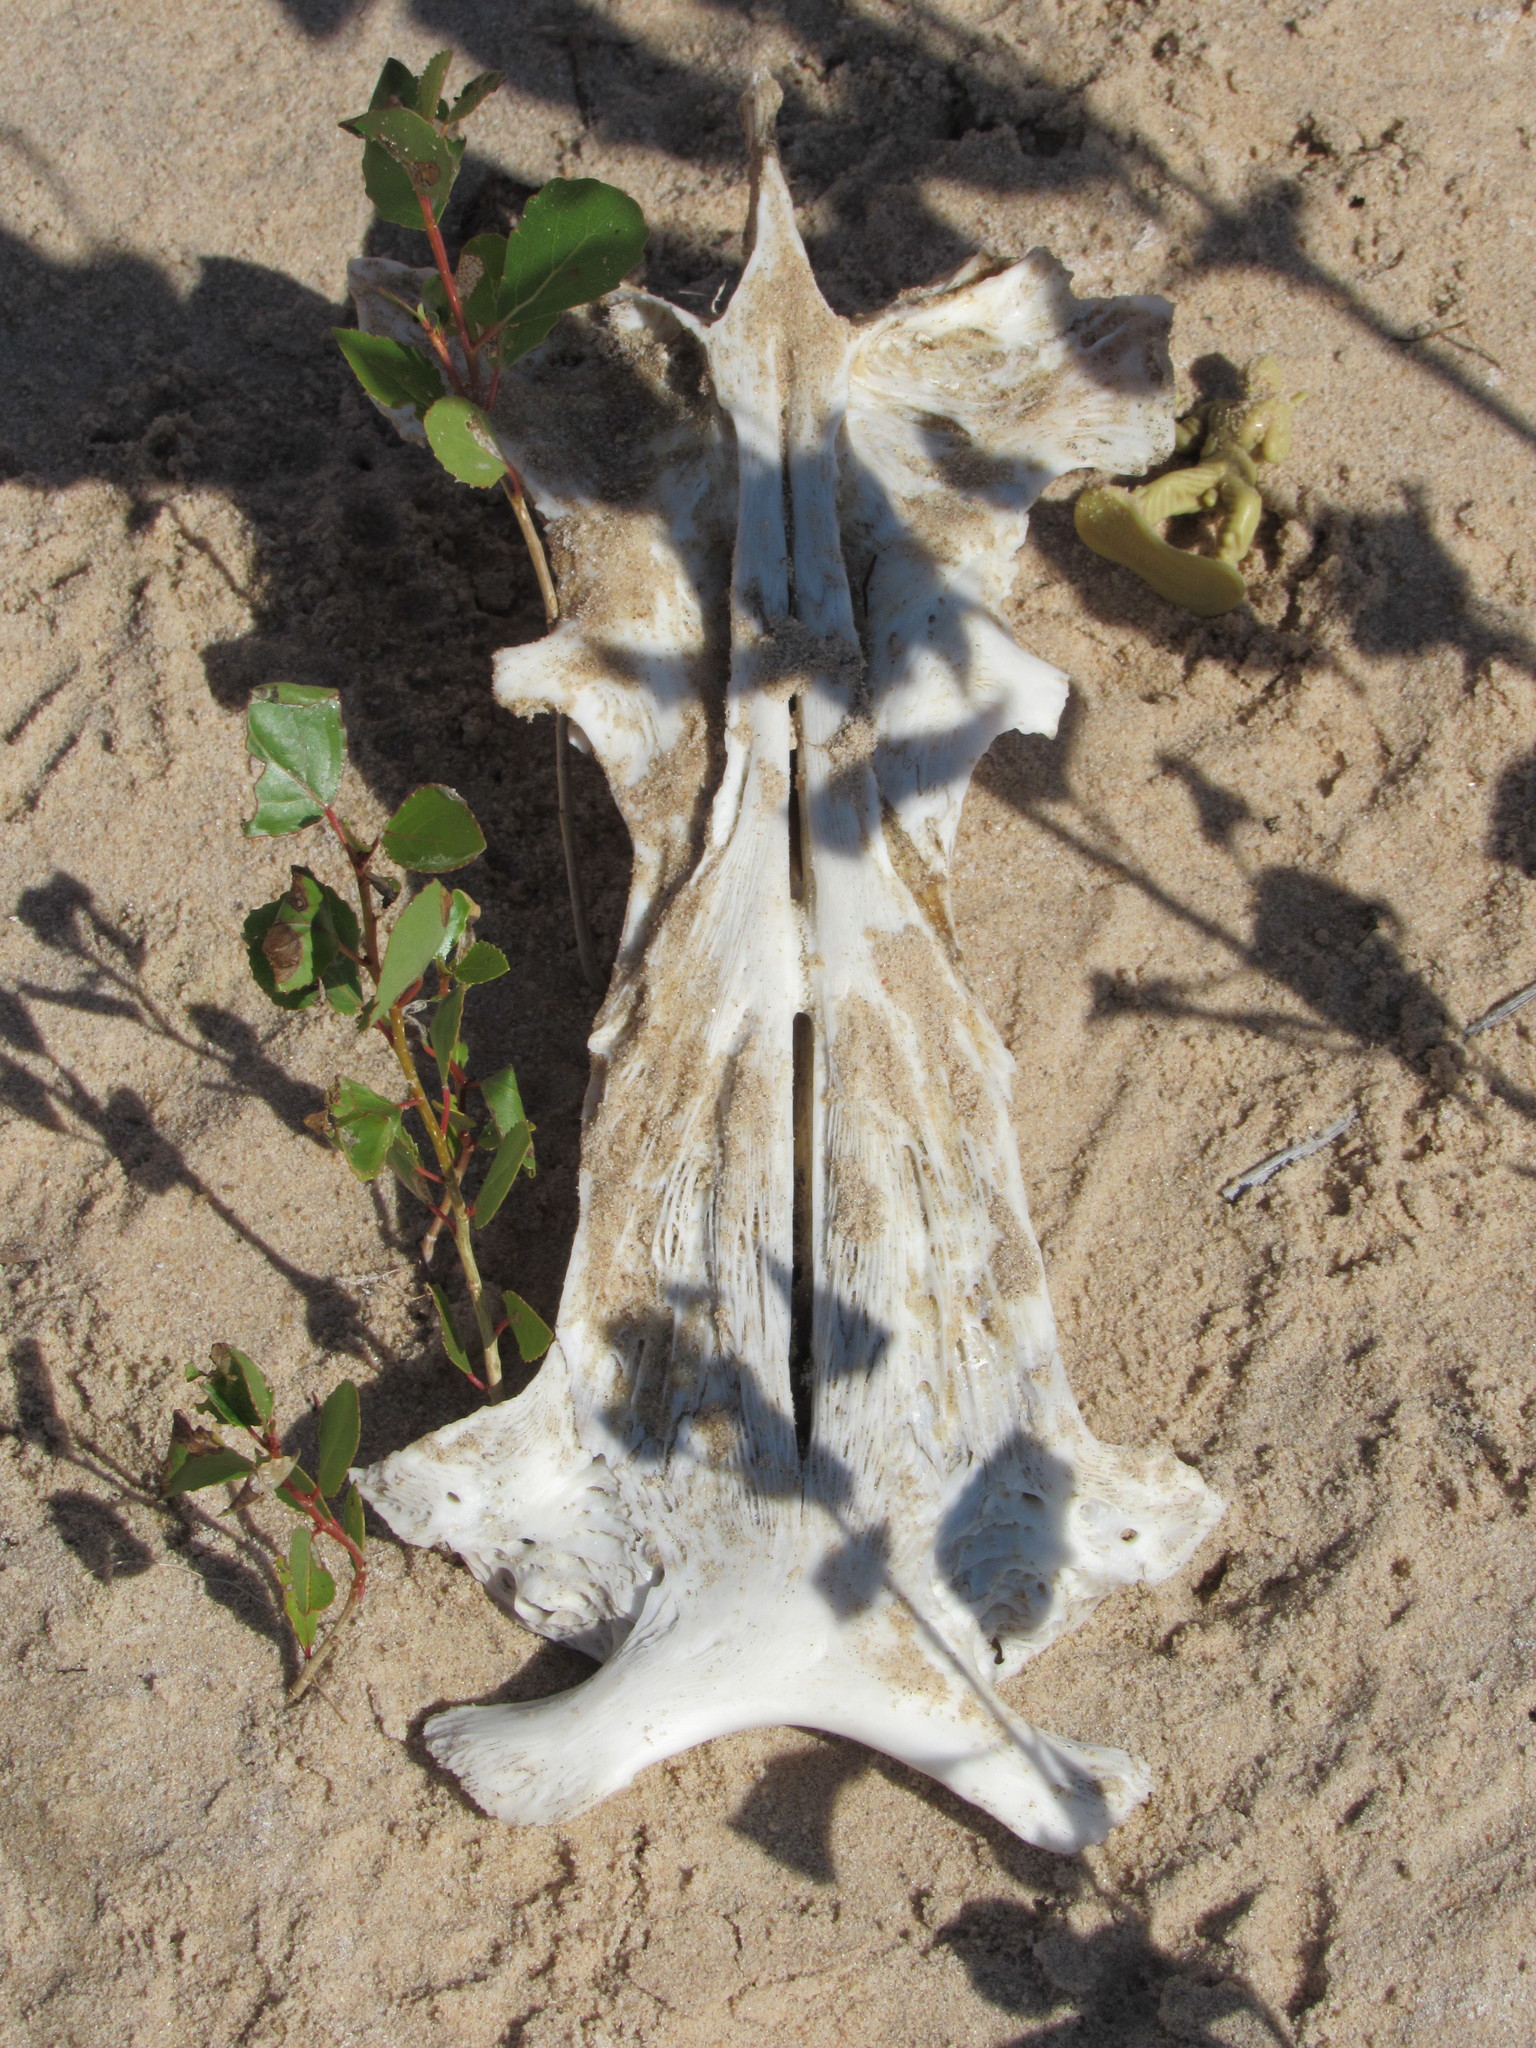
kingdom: Animalia
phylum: Chordata
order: Siluriformes
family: Ictaluridae
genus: Pylodictis
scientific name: Pylodictis olivaris
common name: Flathead catfish
